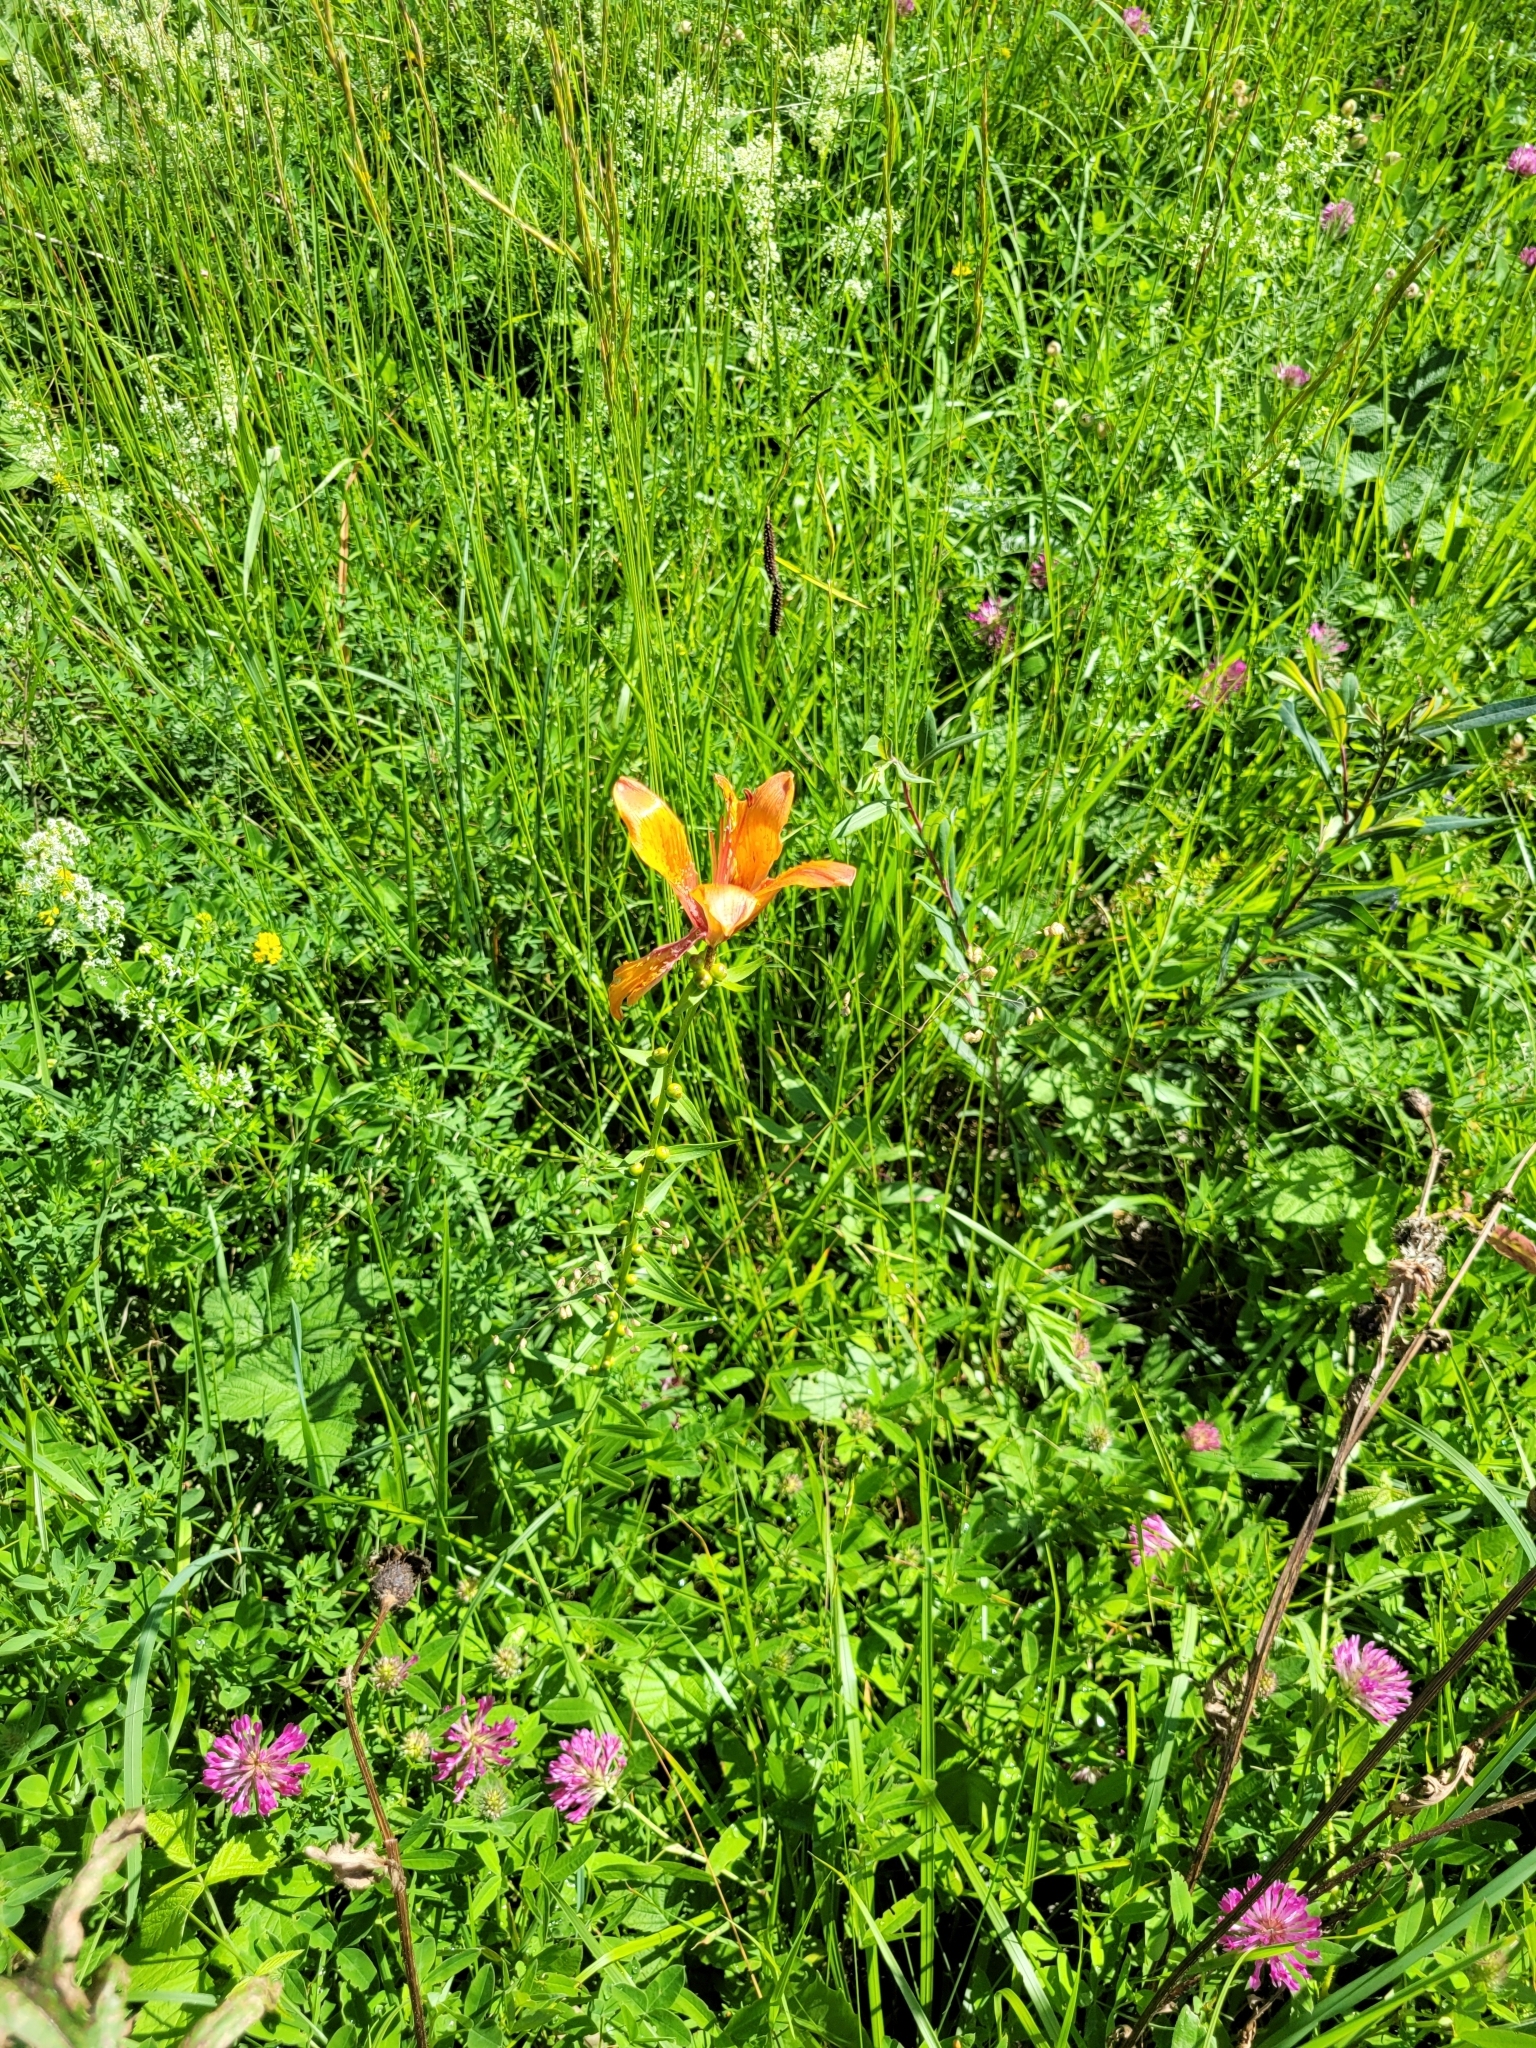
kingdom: Plantae
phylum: Tracheophyta
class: Liliopsida
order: Liliales
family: Liliaceae
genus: Lilium
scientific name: Lilium bulbiferum
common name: Orange lily
